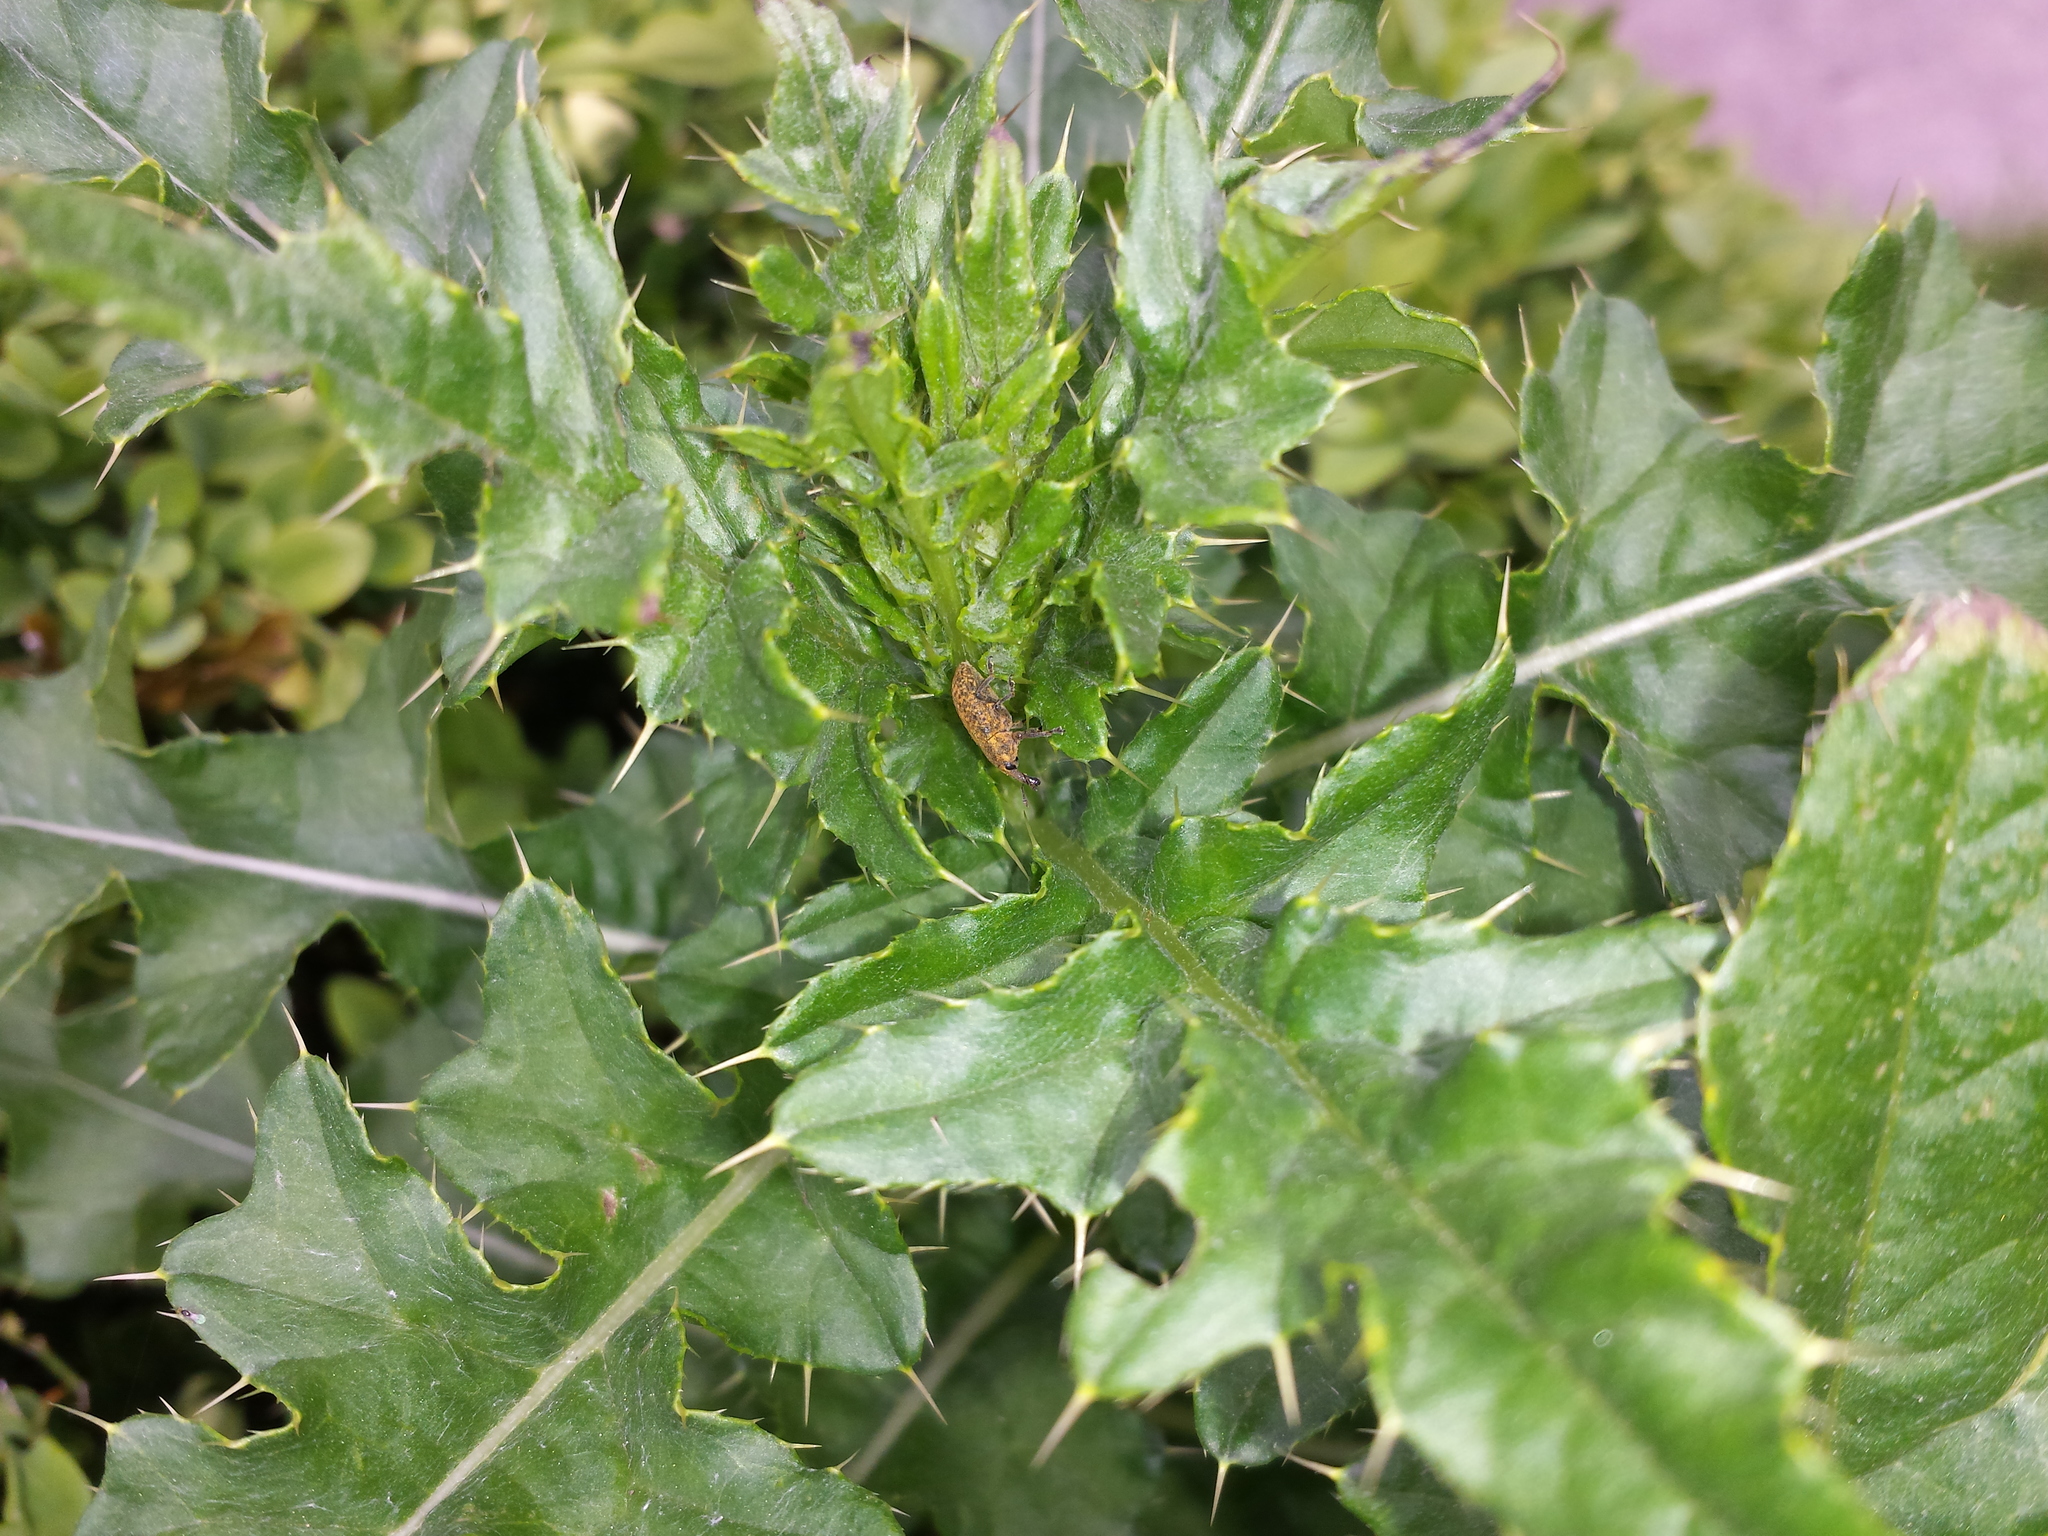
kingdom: Plantae
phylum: Tracheophyta
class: Magnoliopsida
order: Asterales
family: Asteraceae
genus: Cirsium
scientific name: Cirsium arvense
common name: Creeping thistle
